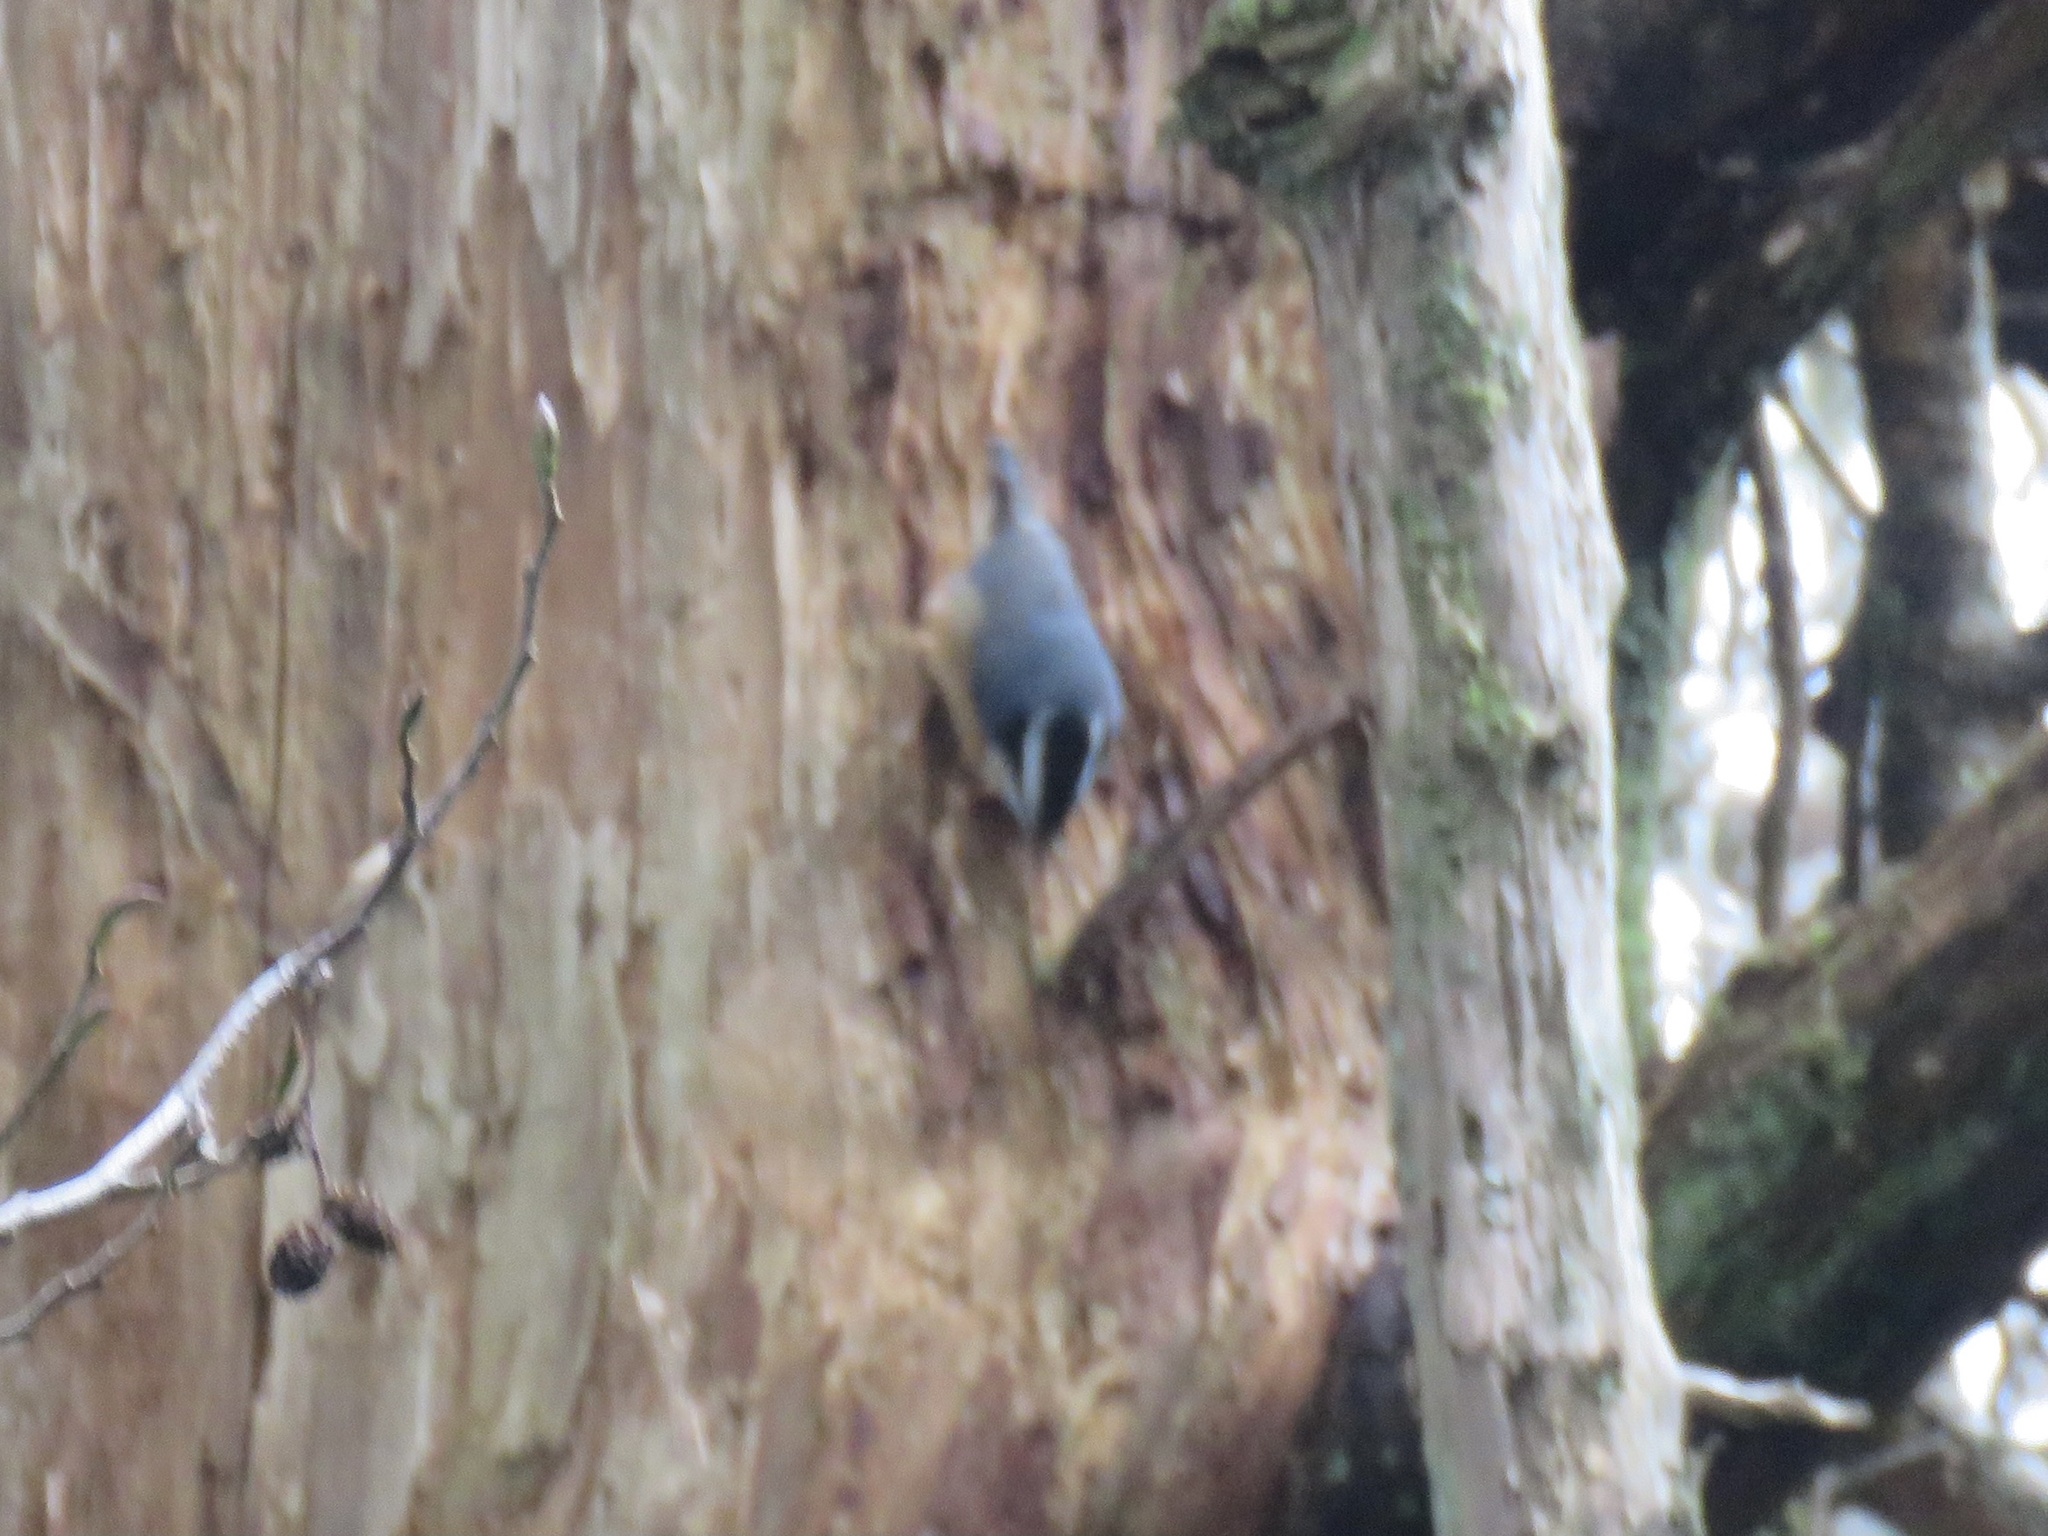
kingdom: Animalia
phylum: Chordata
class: Aves
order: Passeriformes
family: Sittidae
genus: Sitta
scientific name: Sitta canadensis
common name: Red-breasted nuthatch
